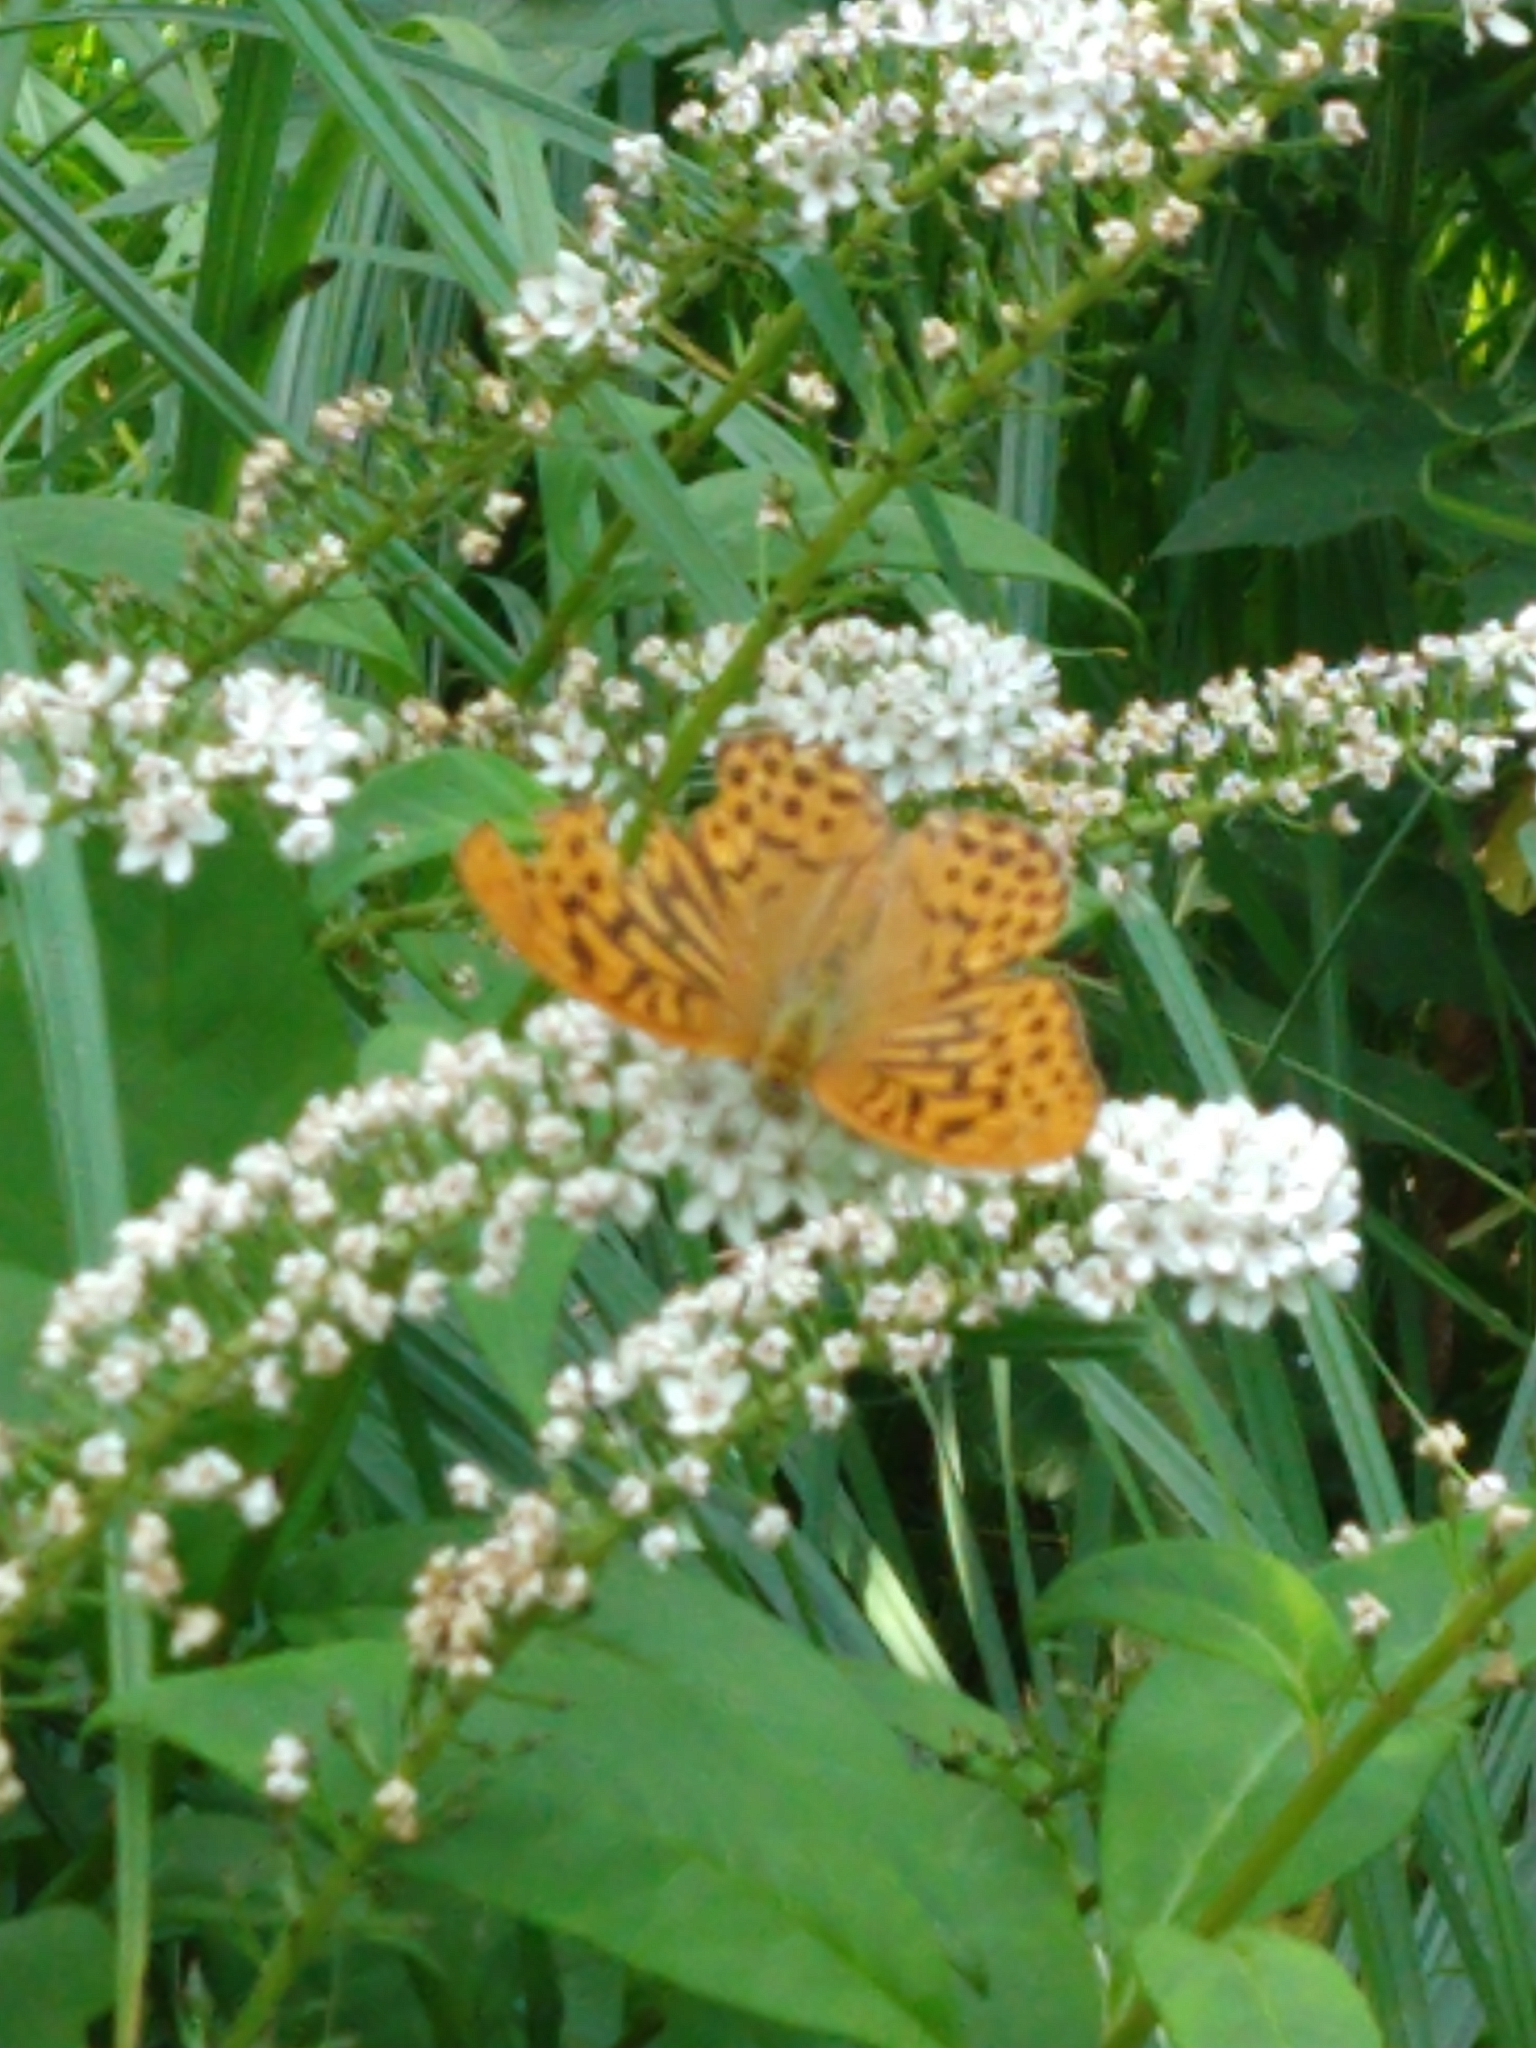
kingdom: Animalia
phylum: Arthropoda
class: Insecta
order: Lepidoptera
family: Nymphalidae
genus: Argynnis
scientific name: Argynnis paphia
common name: Silver-washed fritillary
